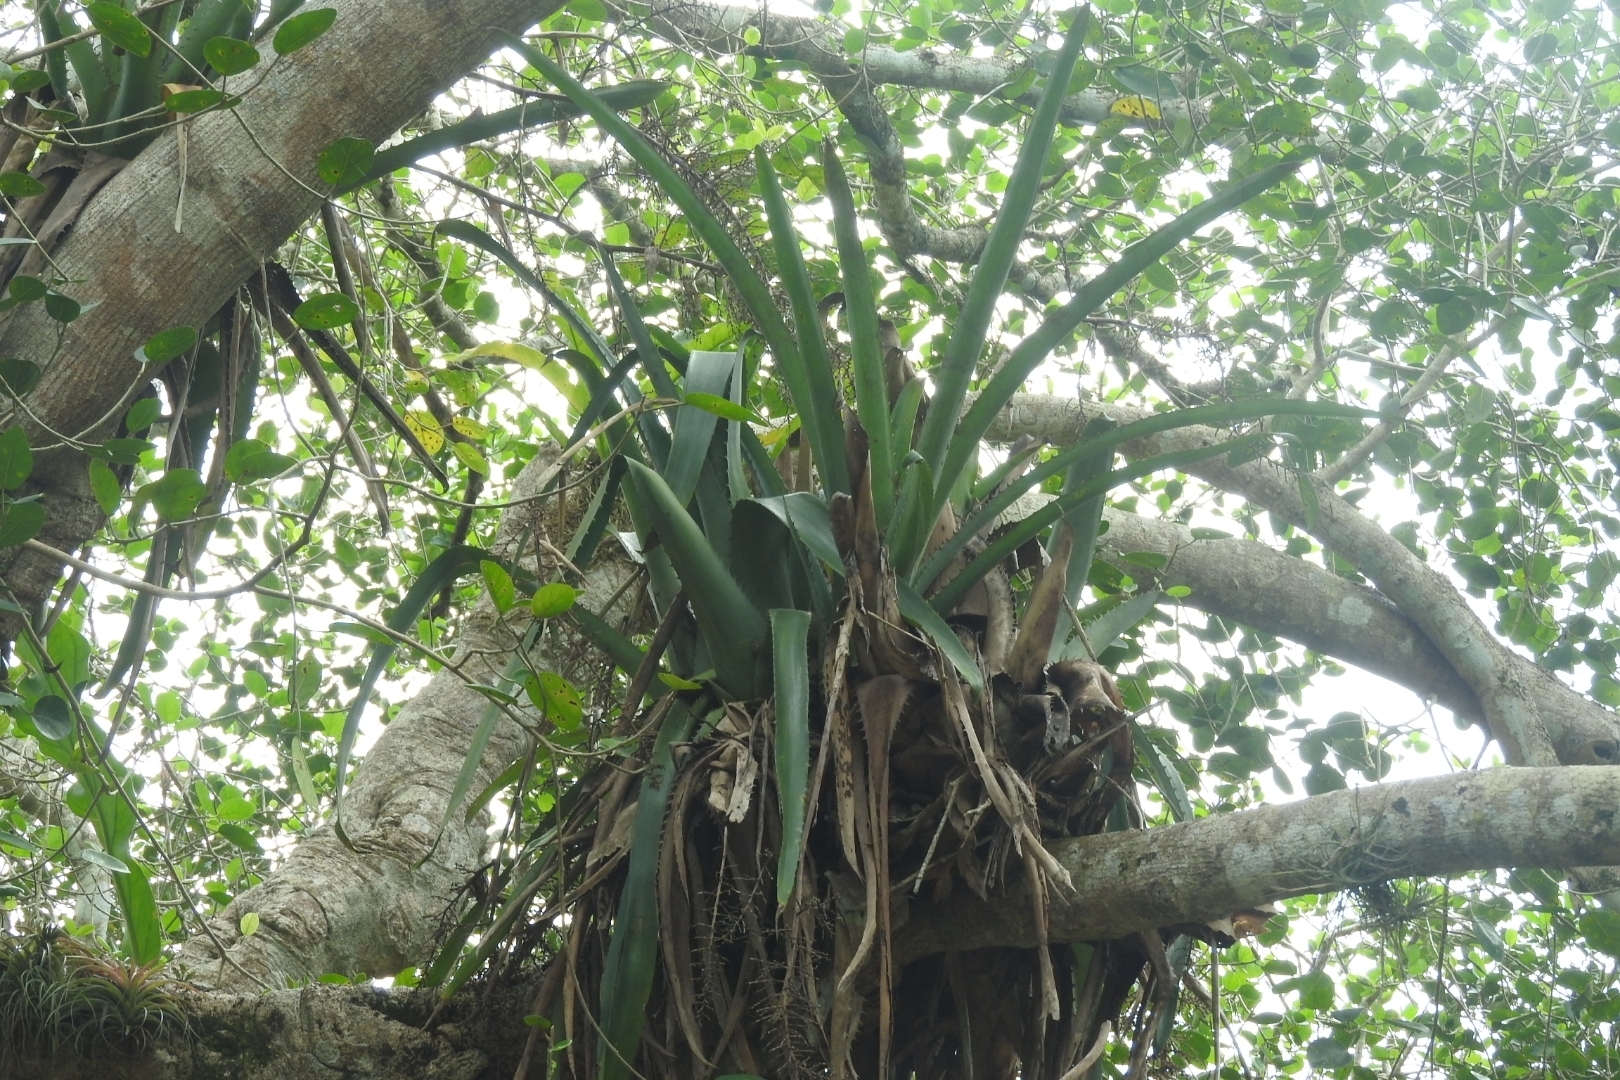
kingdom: Plantae
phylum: Tracheophyta
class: Liliopsida
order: Poales
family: Bromeliaceae
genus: Aechmea
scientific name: Aechmea bracteata
